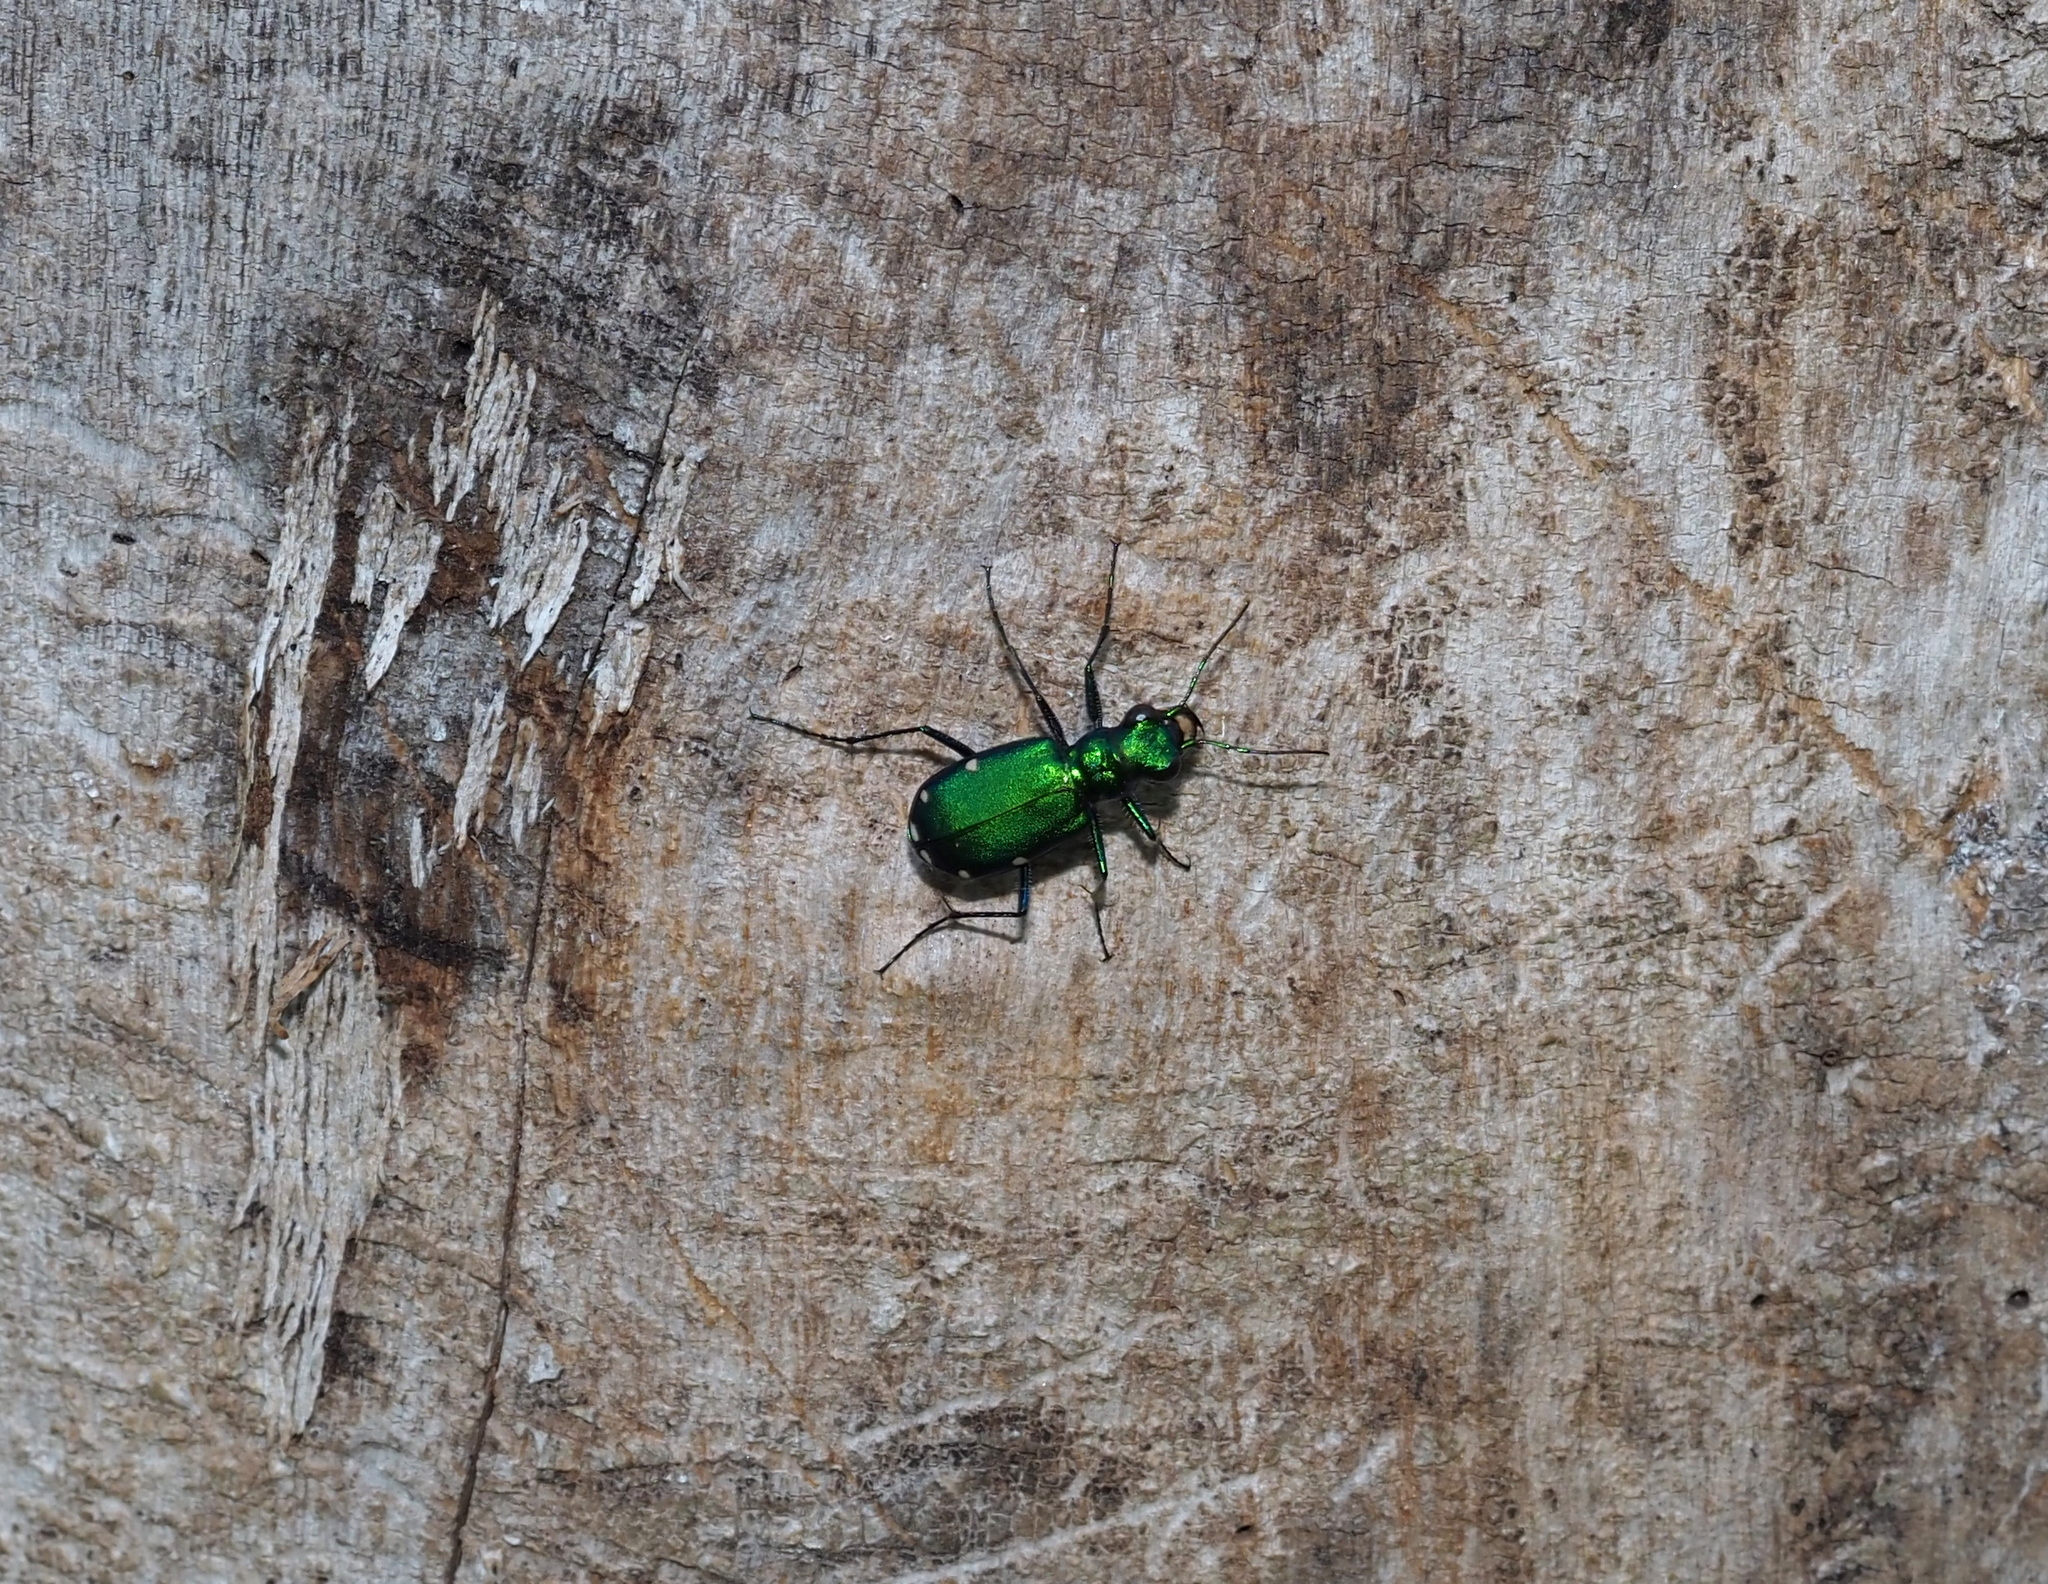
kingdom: Animalia
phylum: Arthropoda
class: Insecta
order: Coleoptera
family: Carabidae
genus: Cicindela
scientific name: Cicindela sexguttata
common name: Six-spotted tiger beetle
